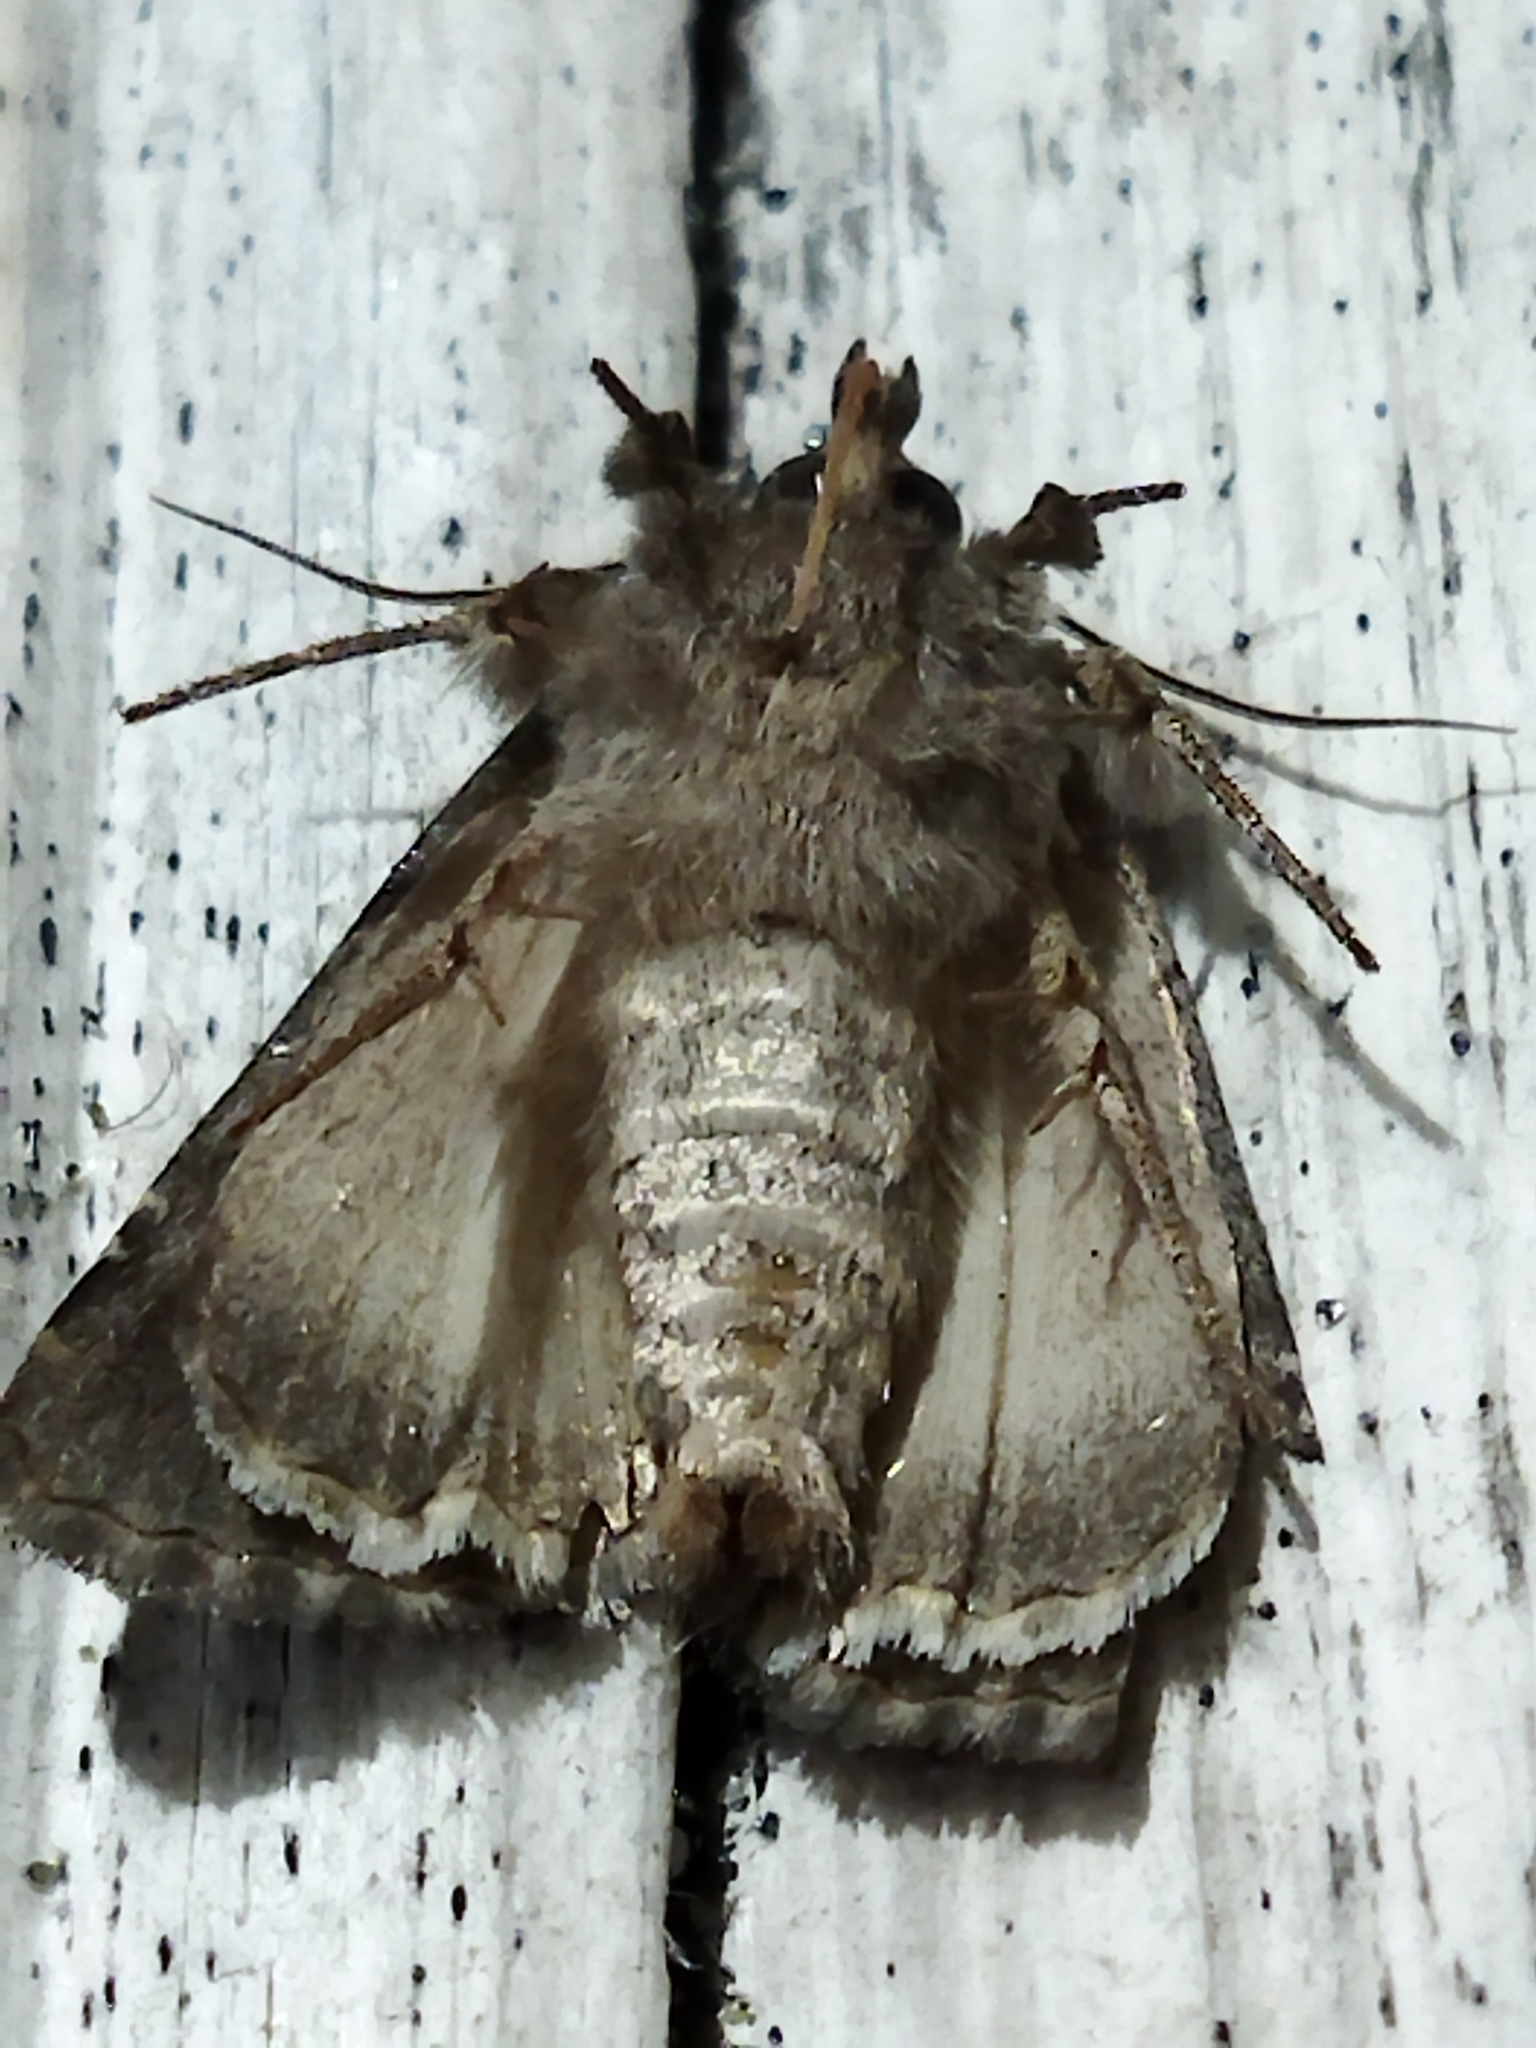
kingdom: Animalia
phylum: Arthropoda
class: Insecta
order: Lepidoptera
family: Noctuidae
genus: Thalpophila
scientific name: Thalpophila matura
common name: Straw underwing
